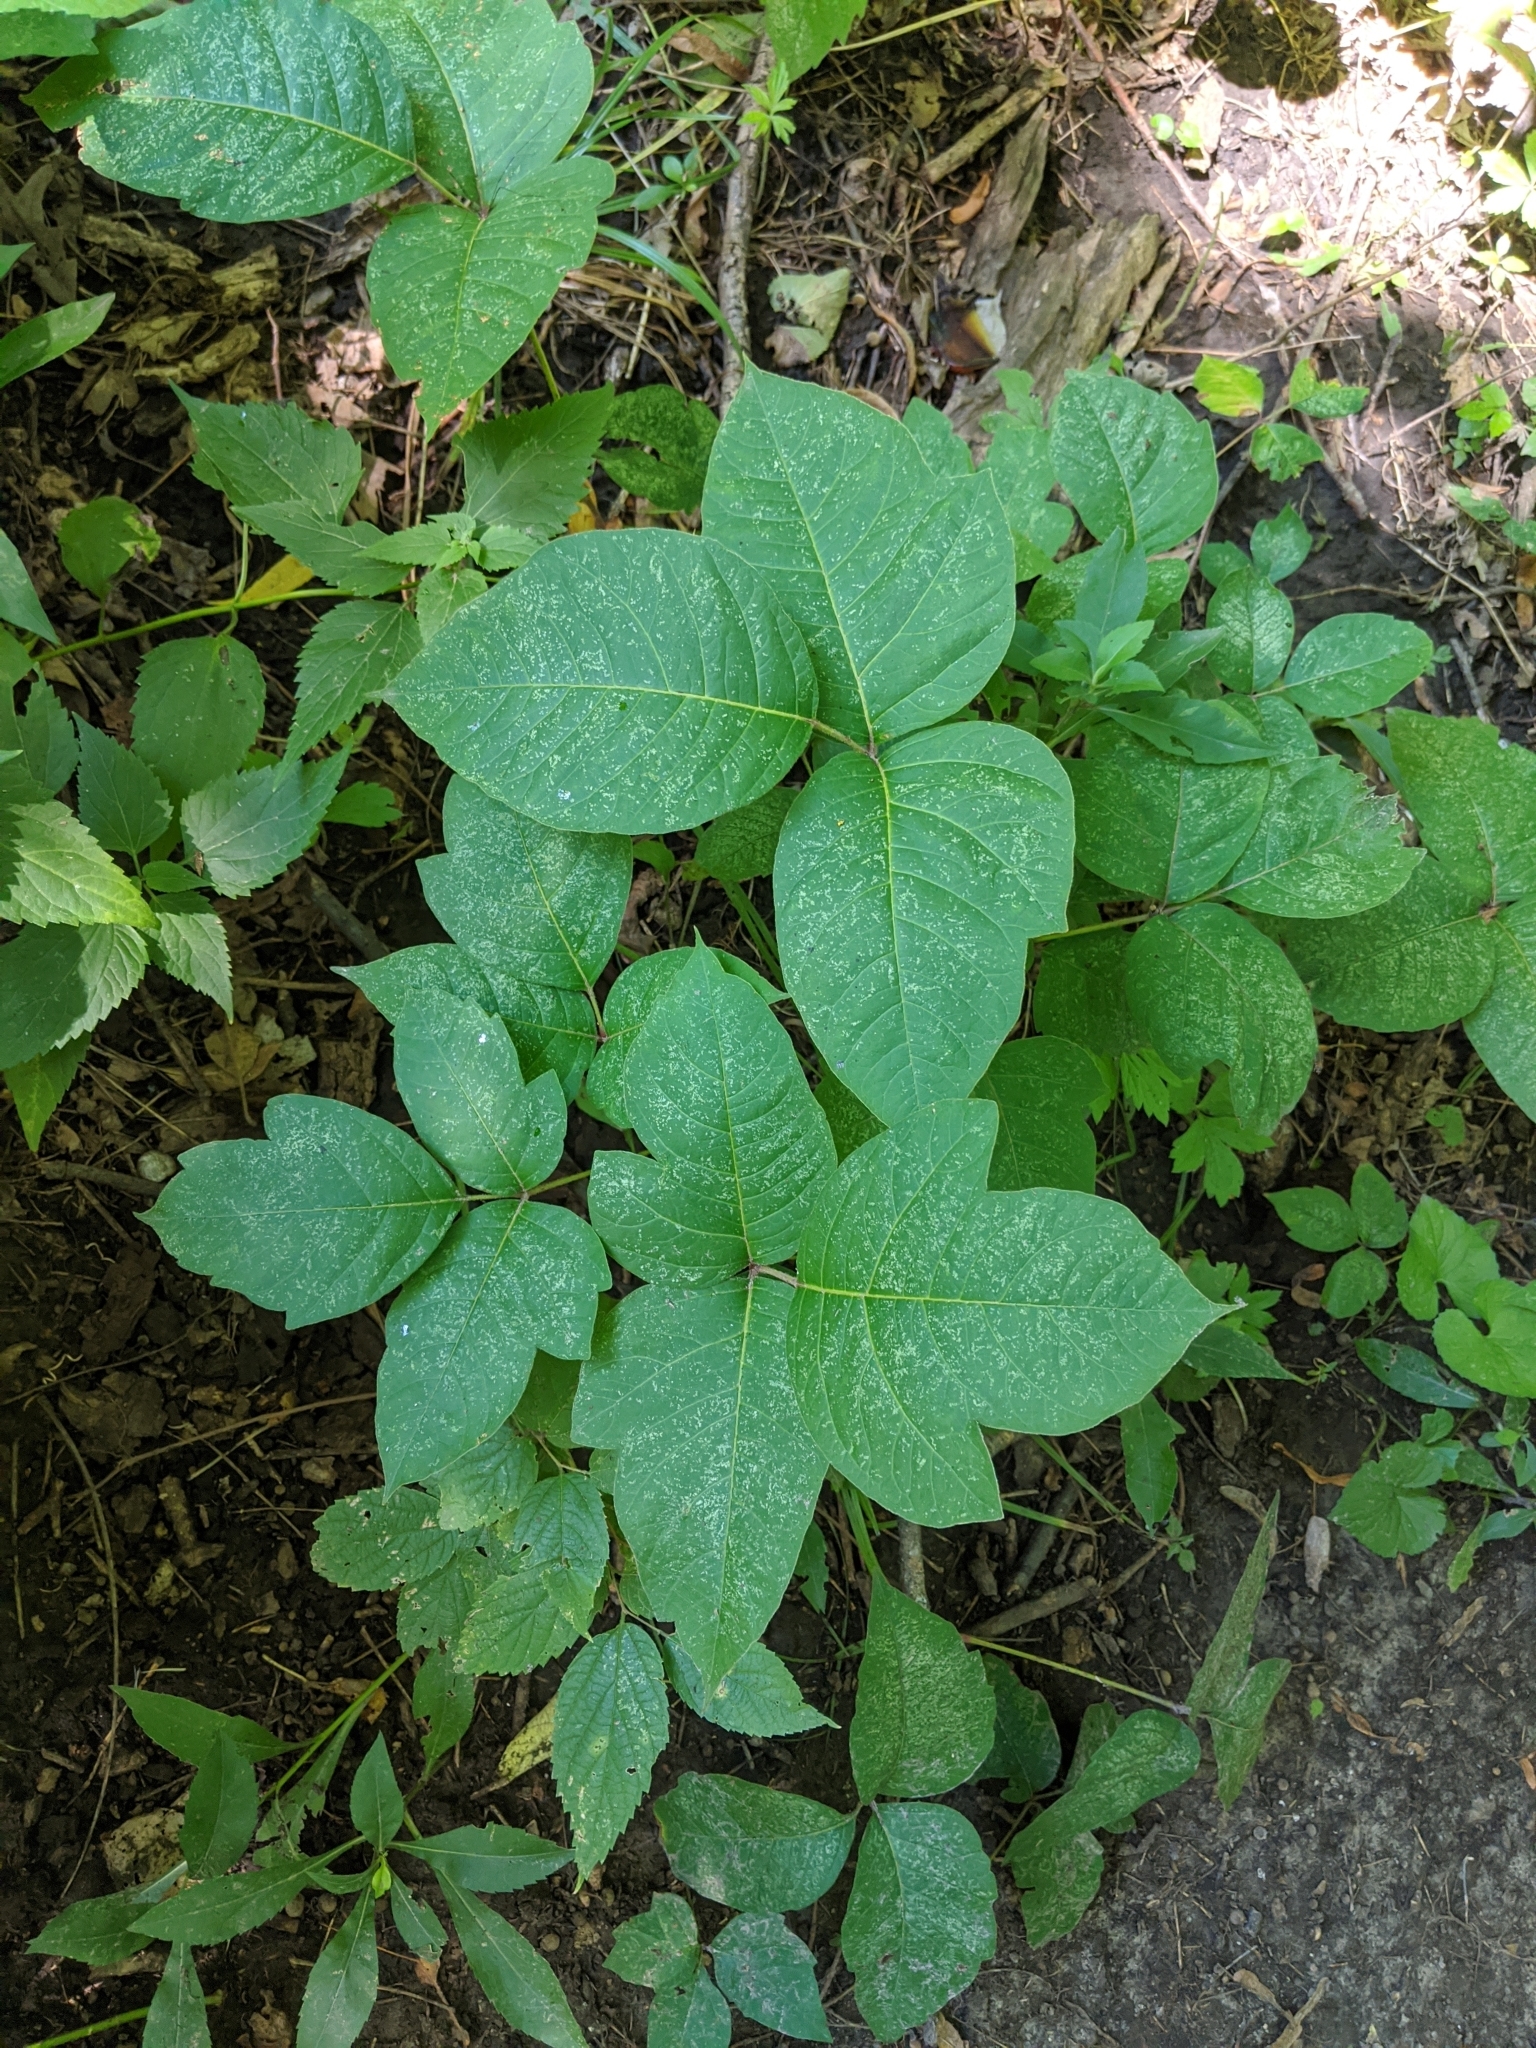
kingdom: Plantae
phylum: Tracheophyta
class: Magnoliopsida
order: Sapindales
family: Anacardiaceae
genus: Toxicodendron
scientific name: Toxicodendron radicans
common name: Poison ivy
